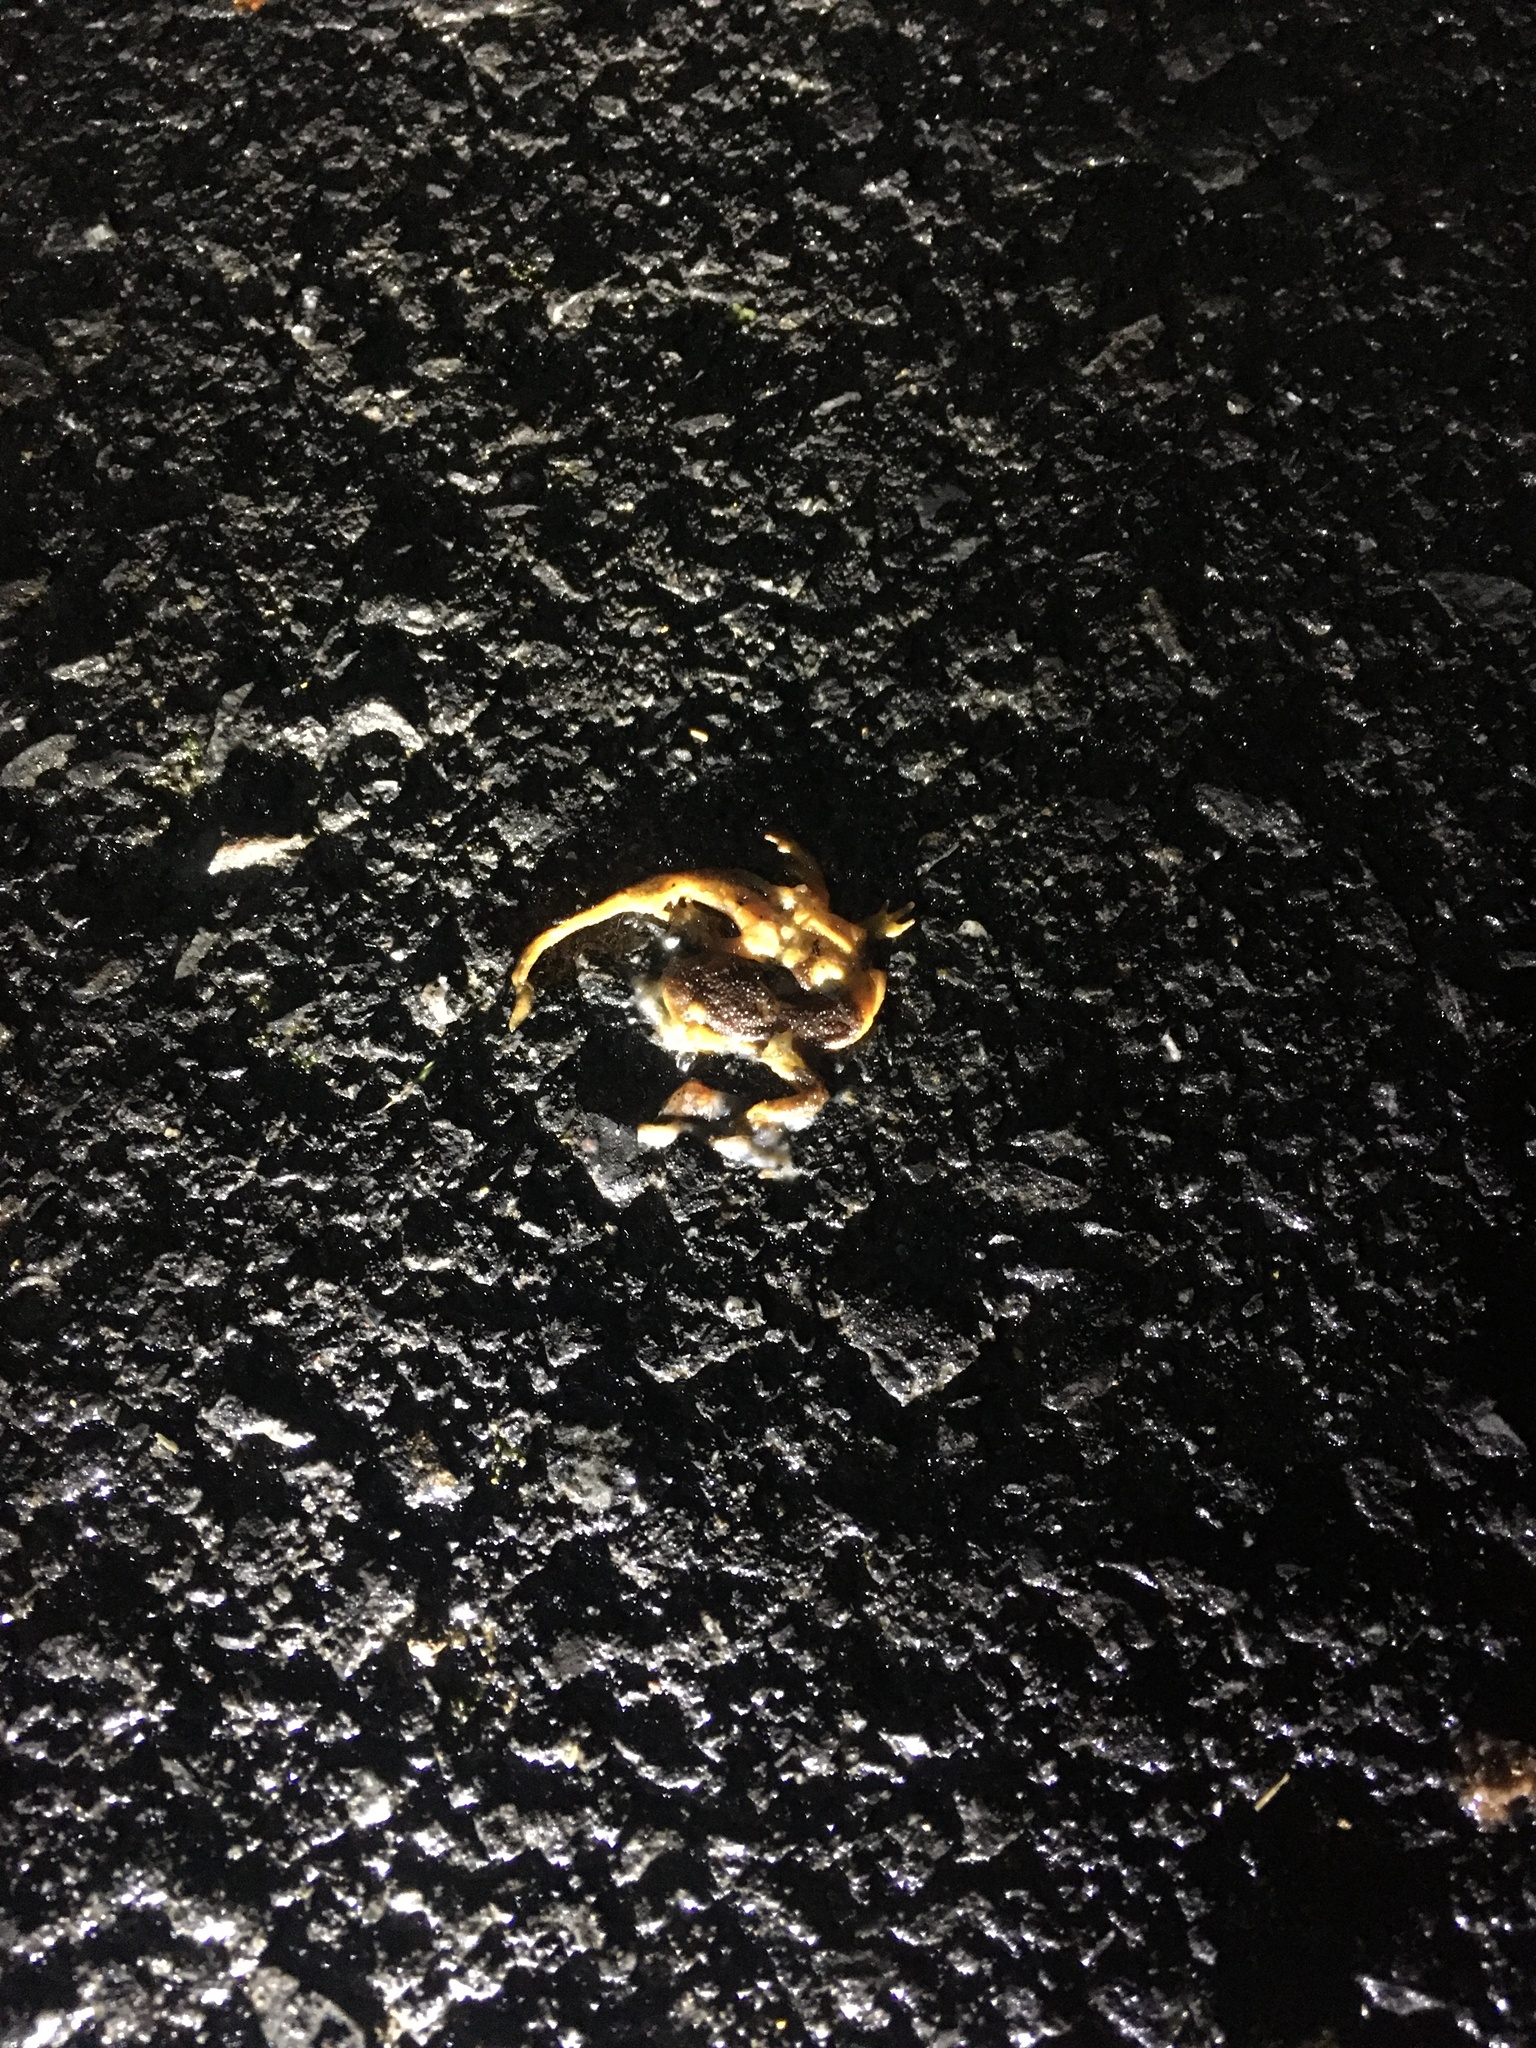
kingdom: Animalia
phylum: Chordata
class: Amphibia
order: Caudata
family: Salamandridae
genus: Taricha
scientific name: Taricha
